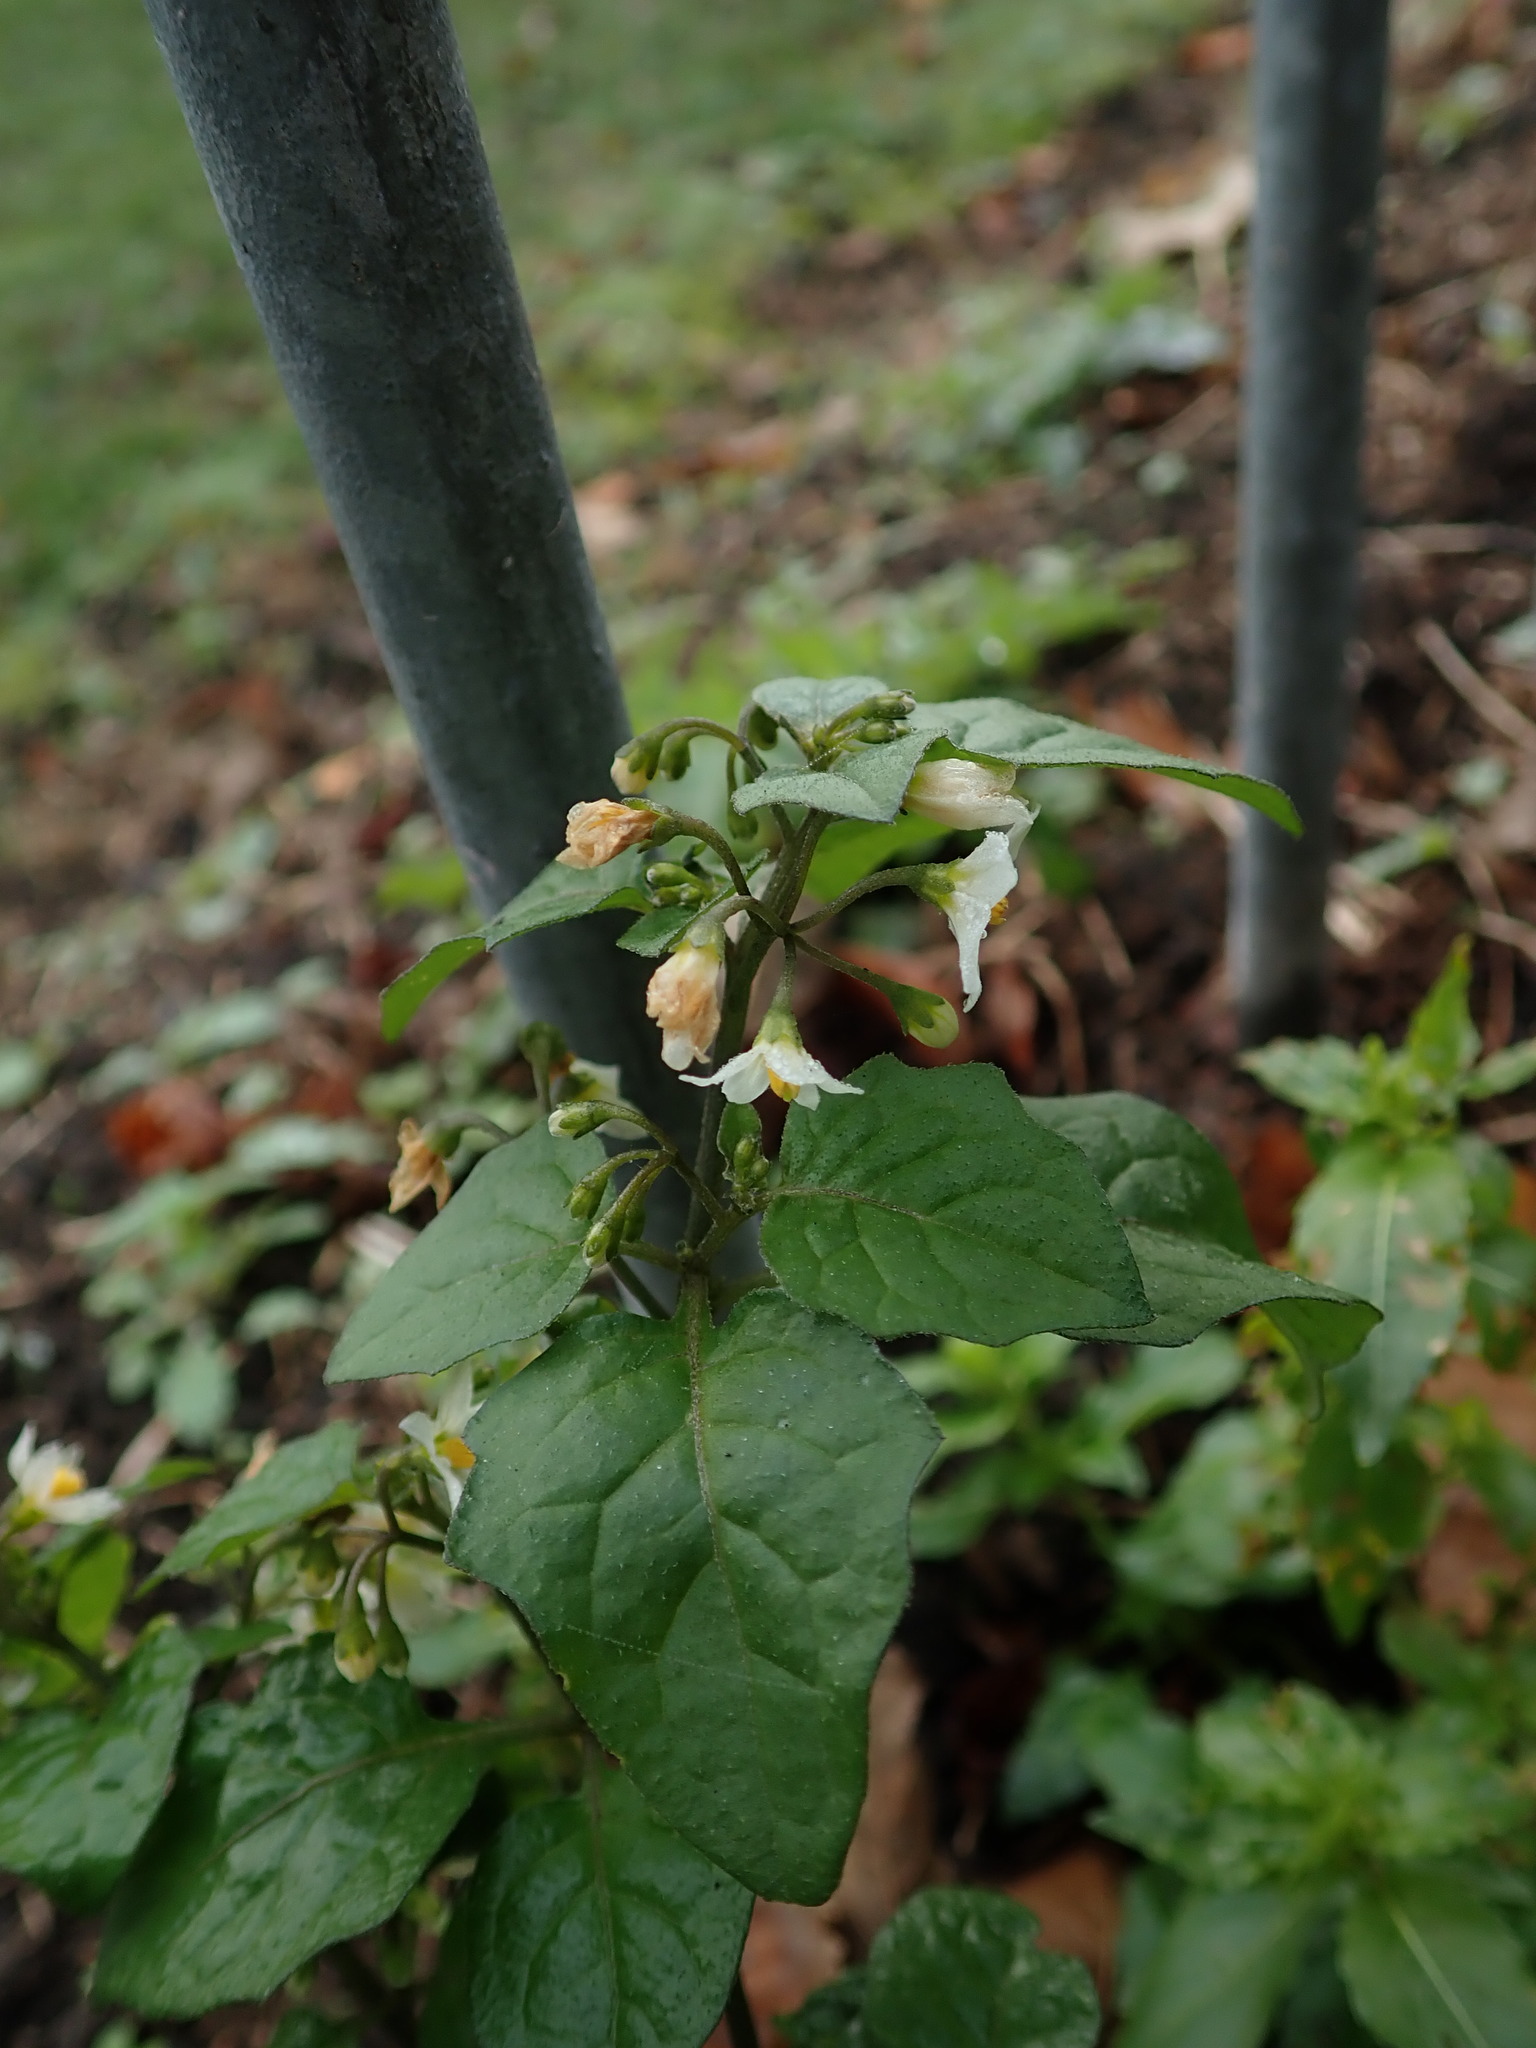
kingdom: Plantae
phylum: Tracheophyta
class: Magnoliopsida
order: Solanales
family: Solanaceae
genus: Solanum
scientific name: Solanum nigrum
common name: Black nightshade
